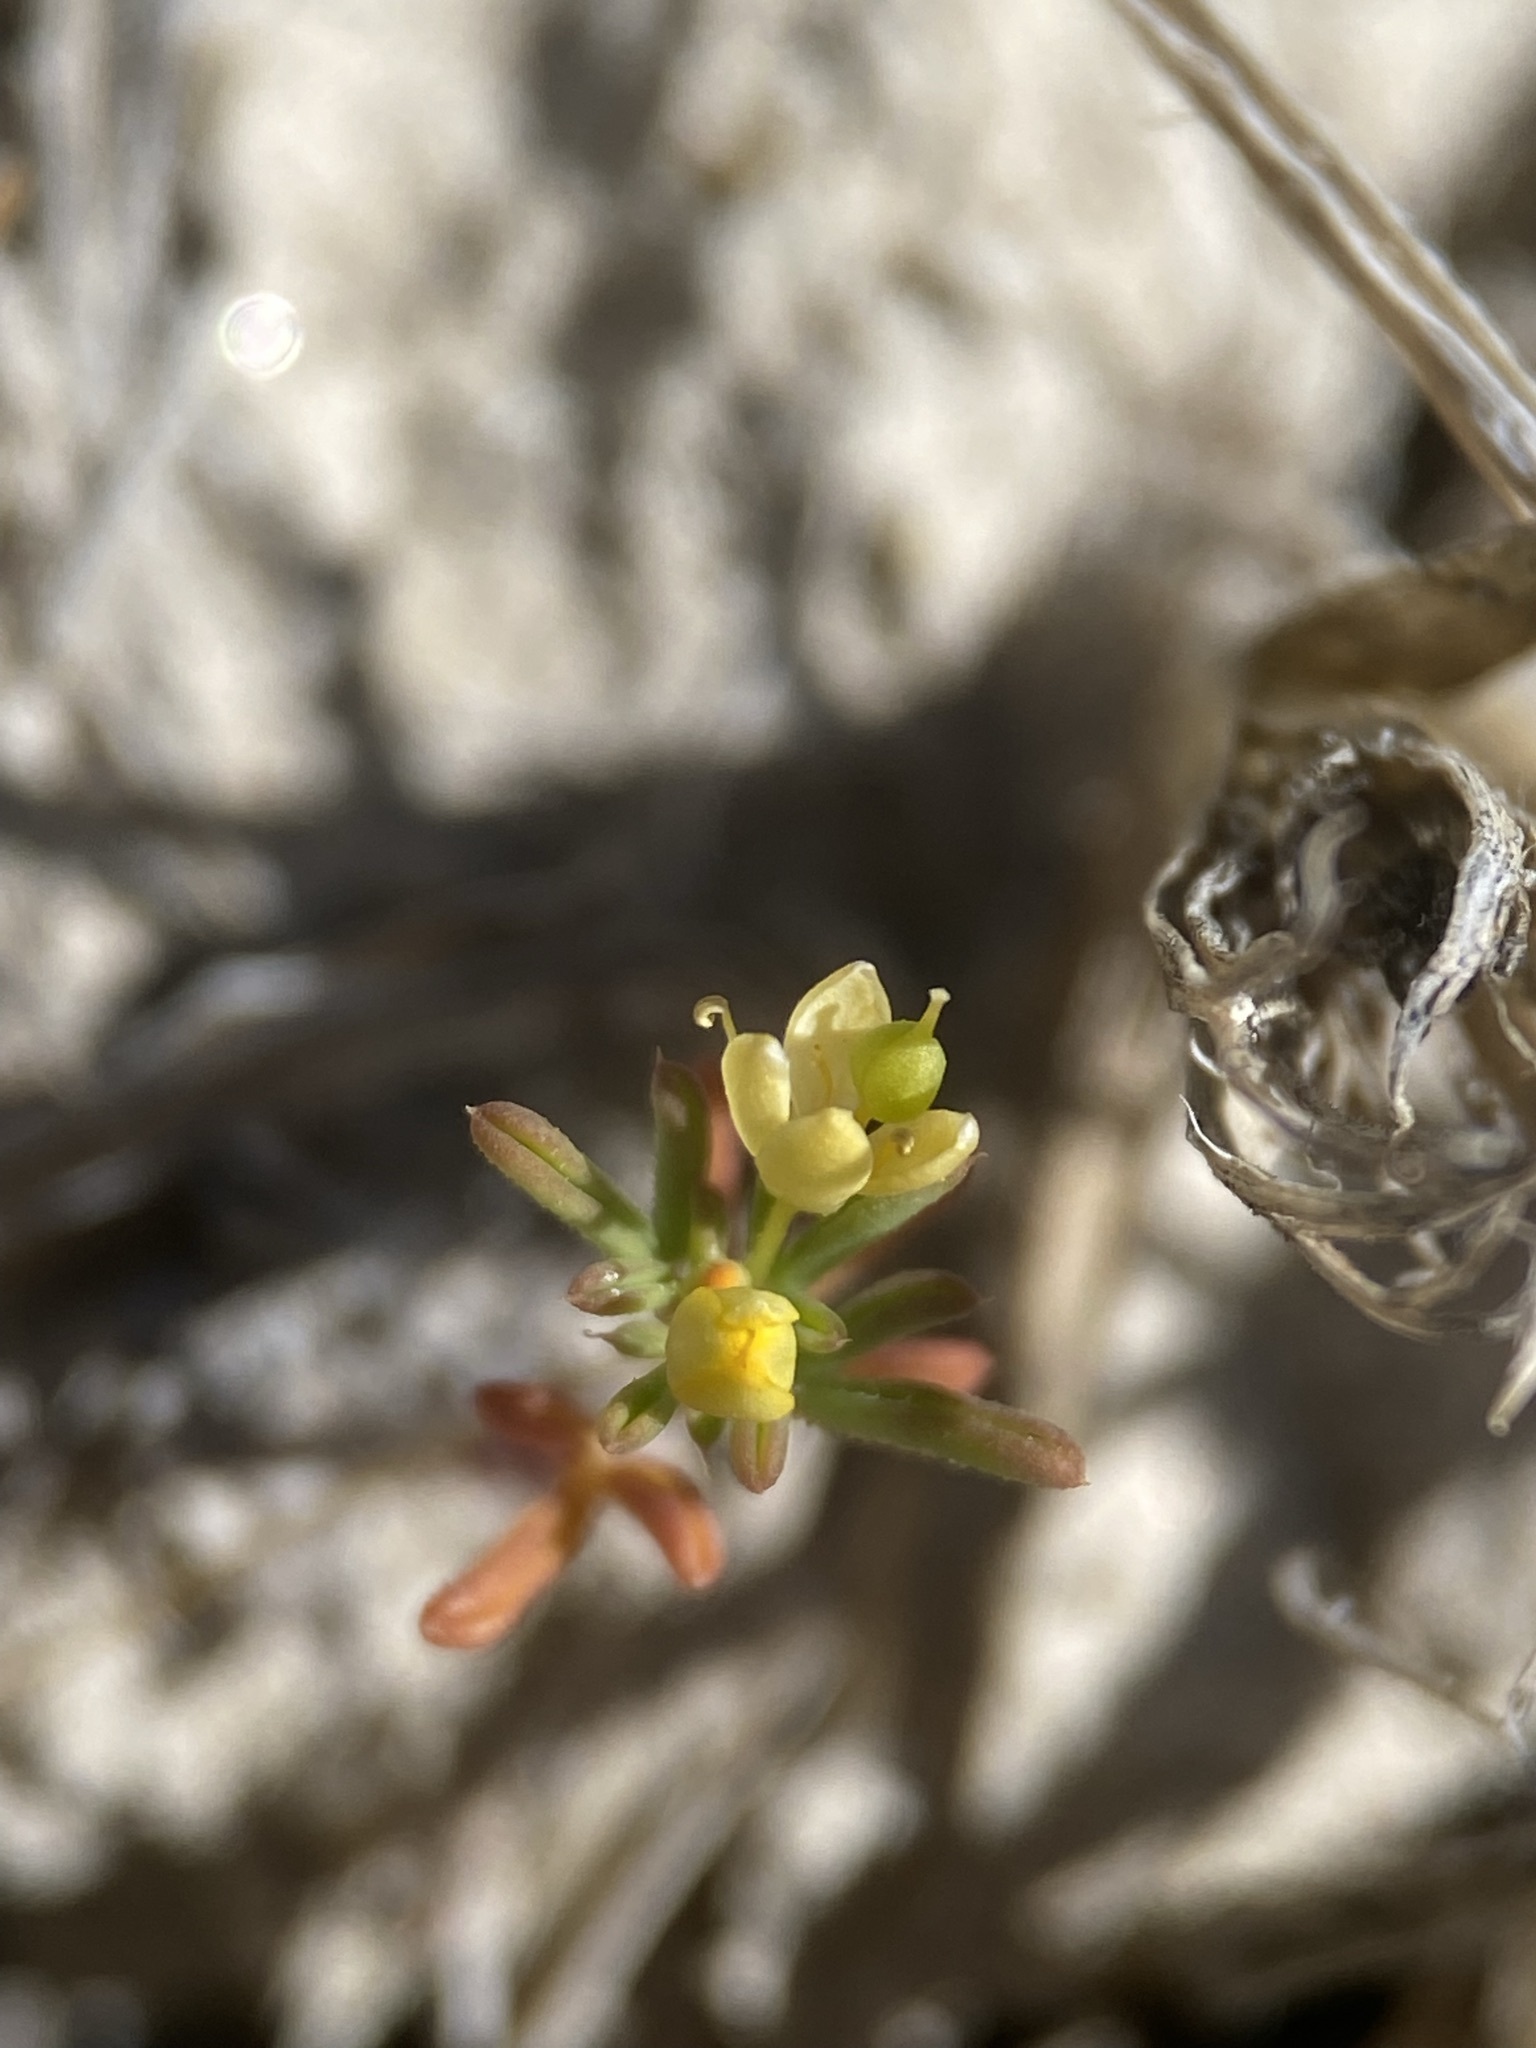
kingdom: Plantae
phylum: Tracheophyta
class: Magnoliopsida
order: Brassicales
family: Cleomaceae
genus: Cleomella
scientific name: Cleomella parviflora
